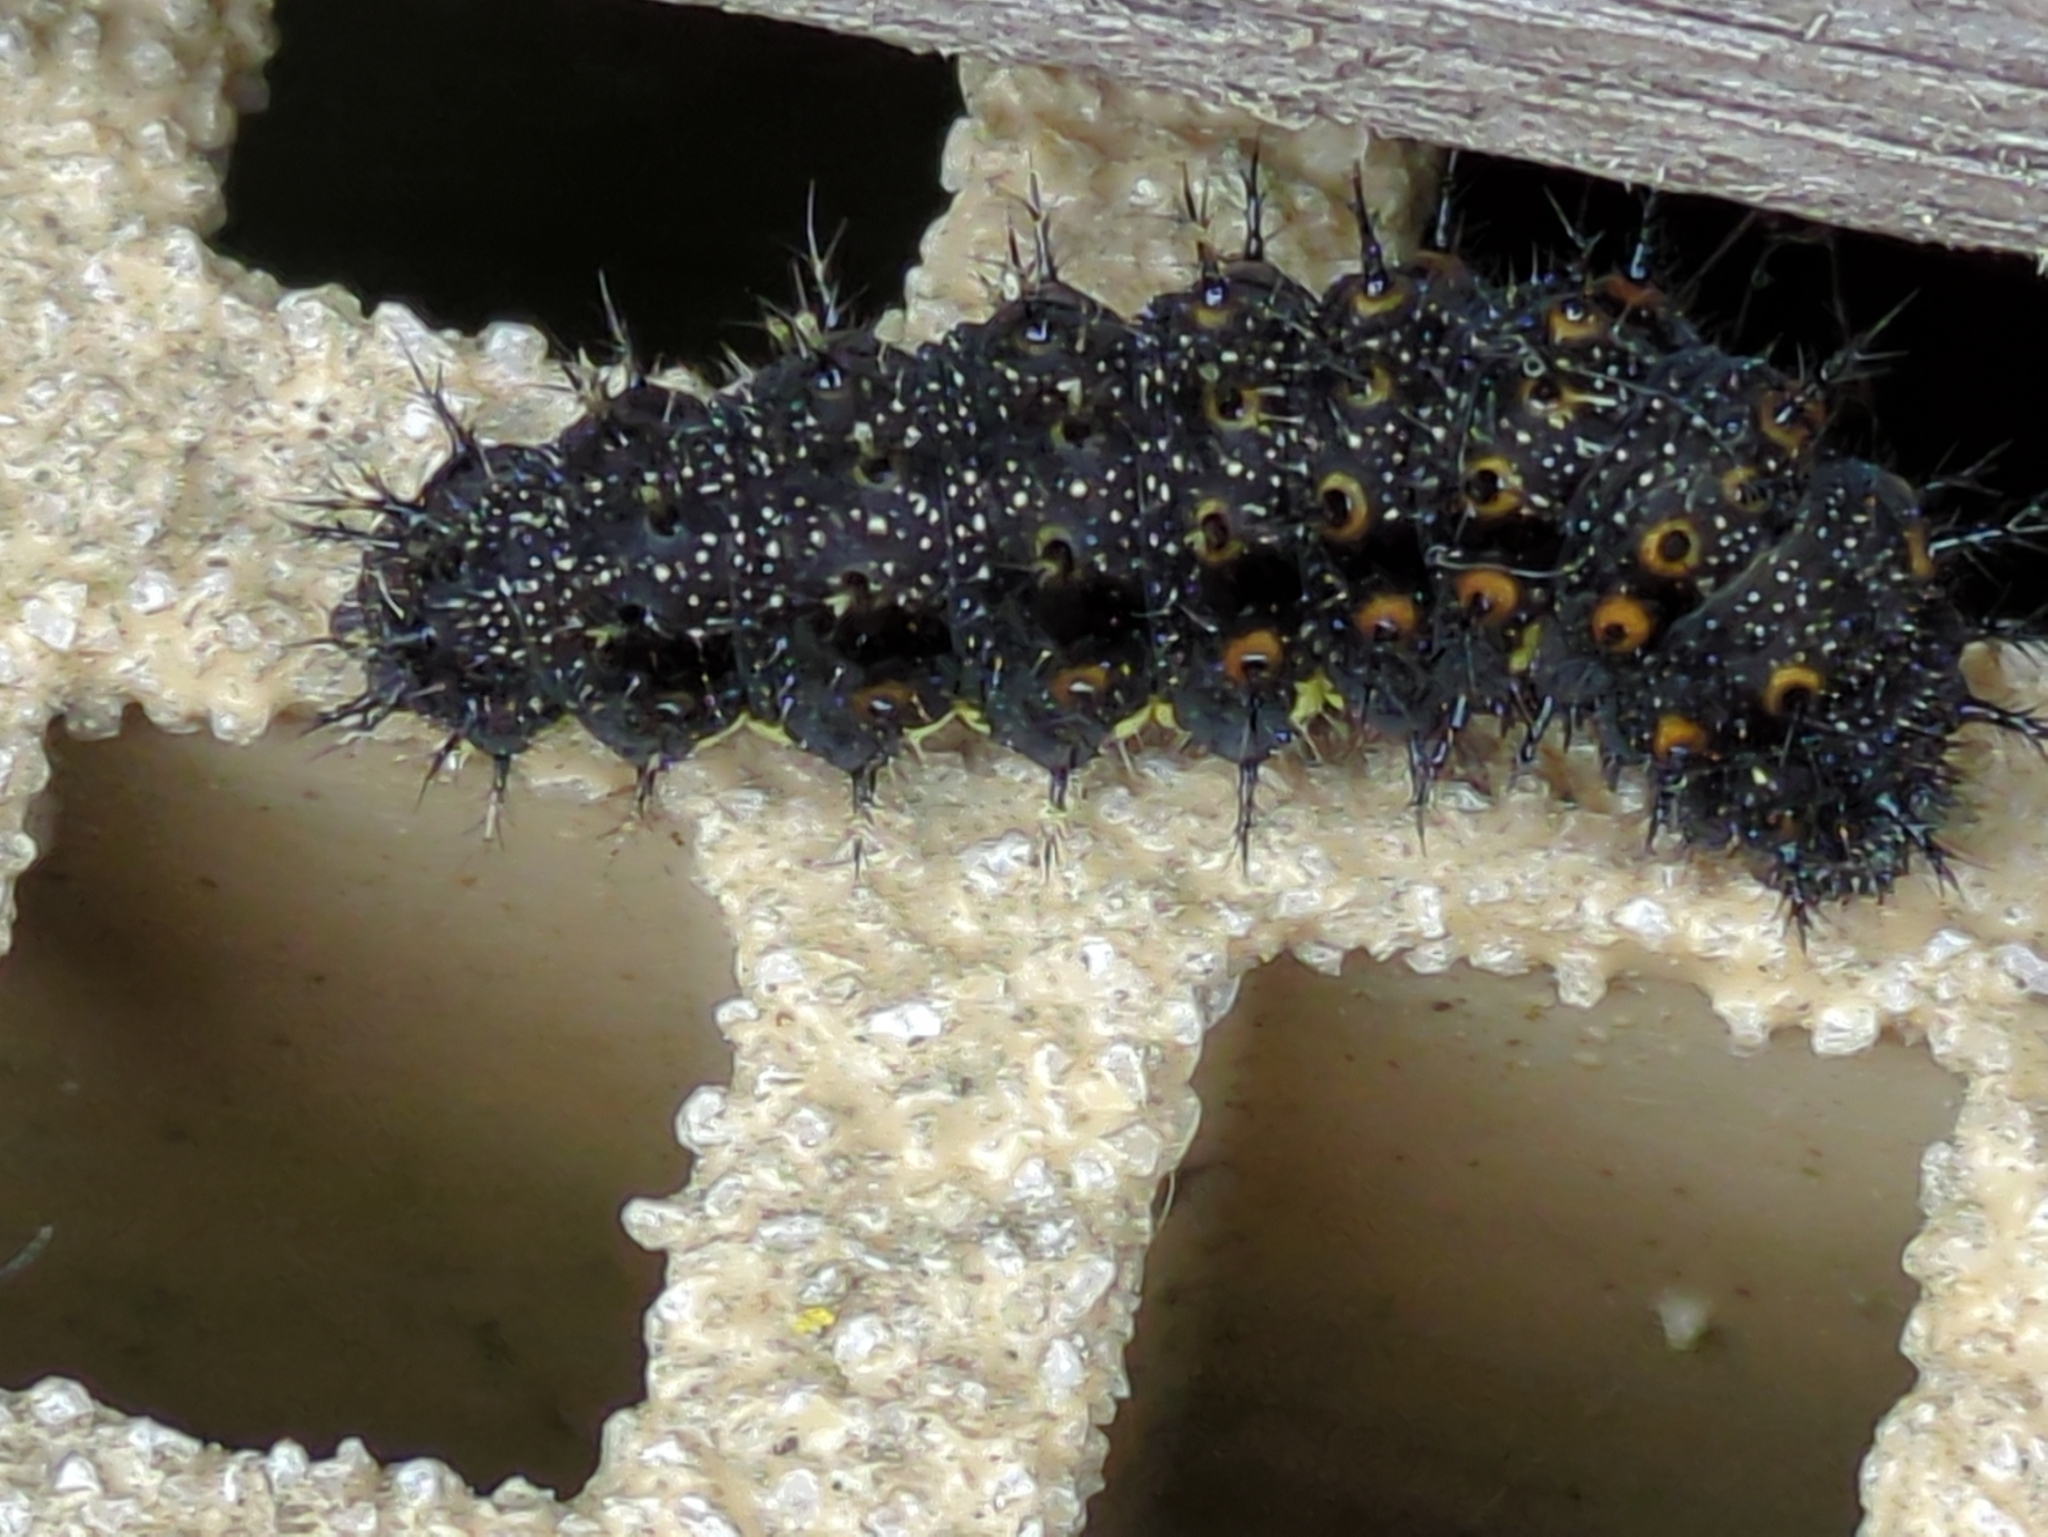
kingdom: Animalia
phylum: Arthropoda
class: Insecta
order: Lepidoptera
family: Nymphalidae
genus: Vanessa
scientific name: Vanessa atalanta
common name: Red admiral
